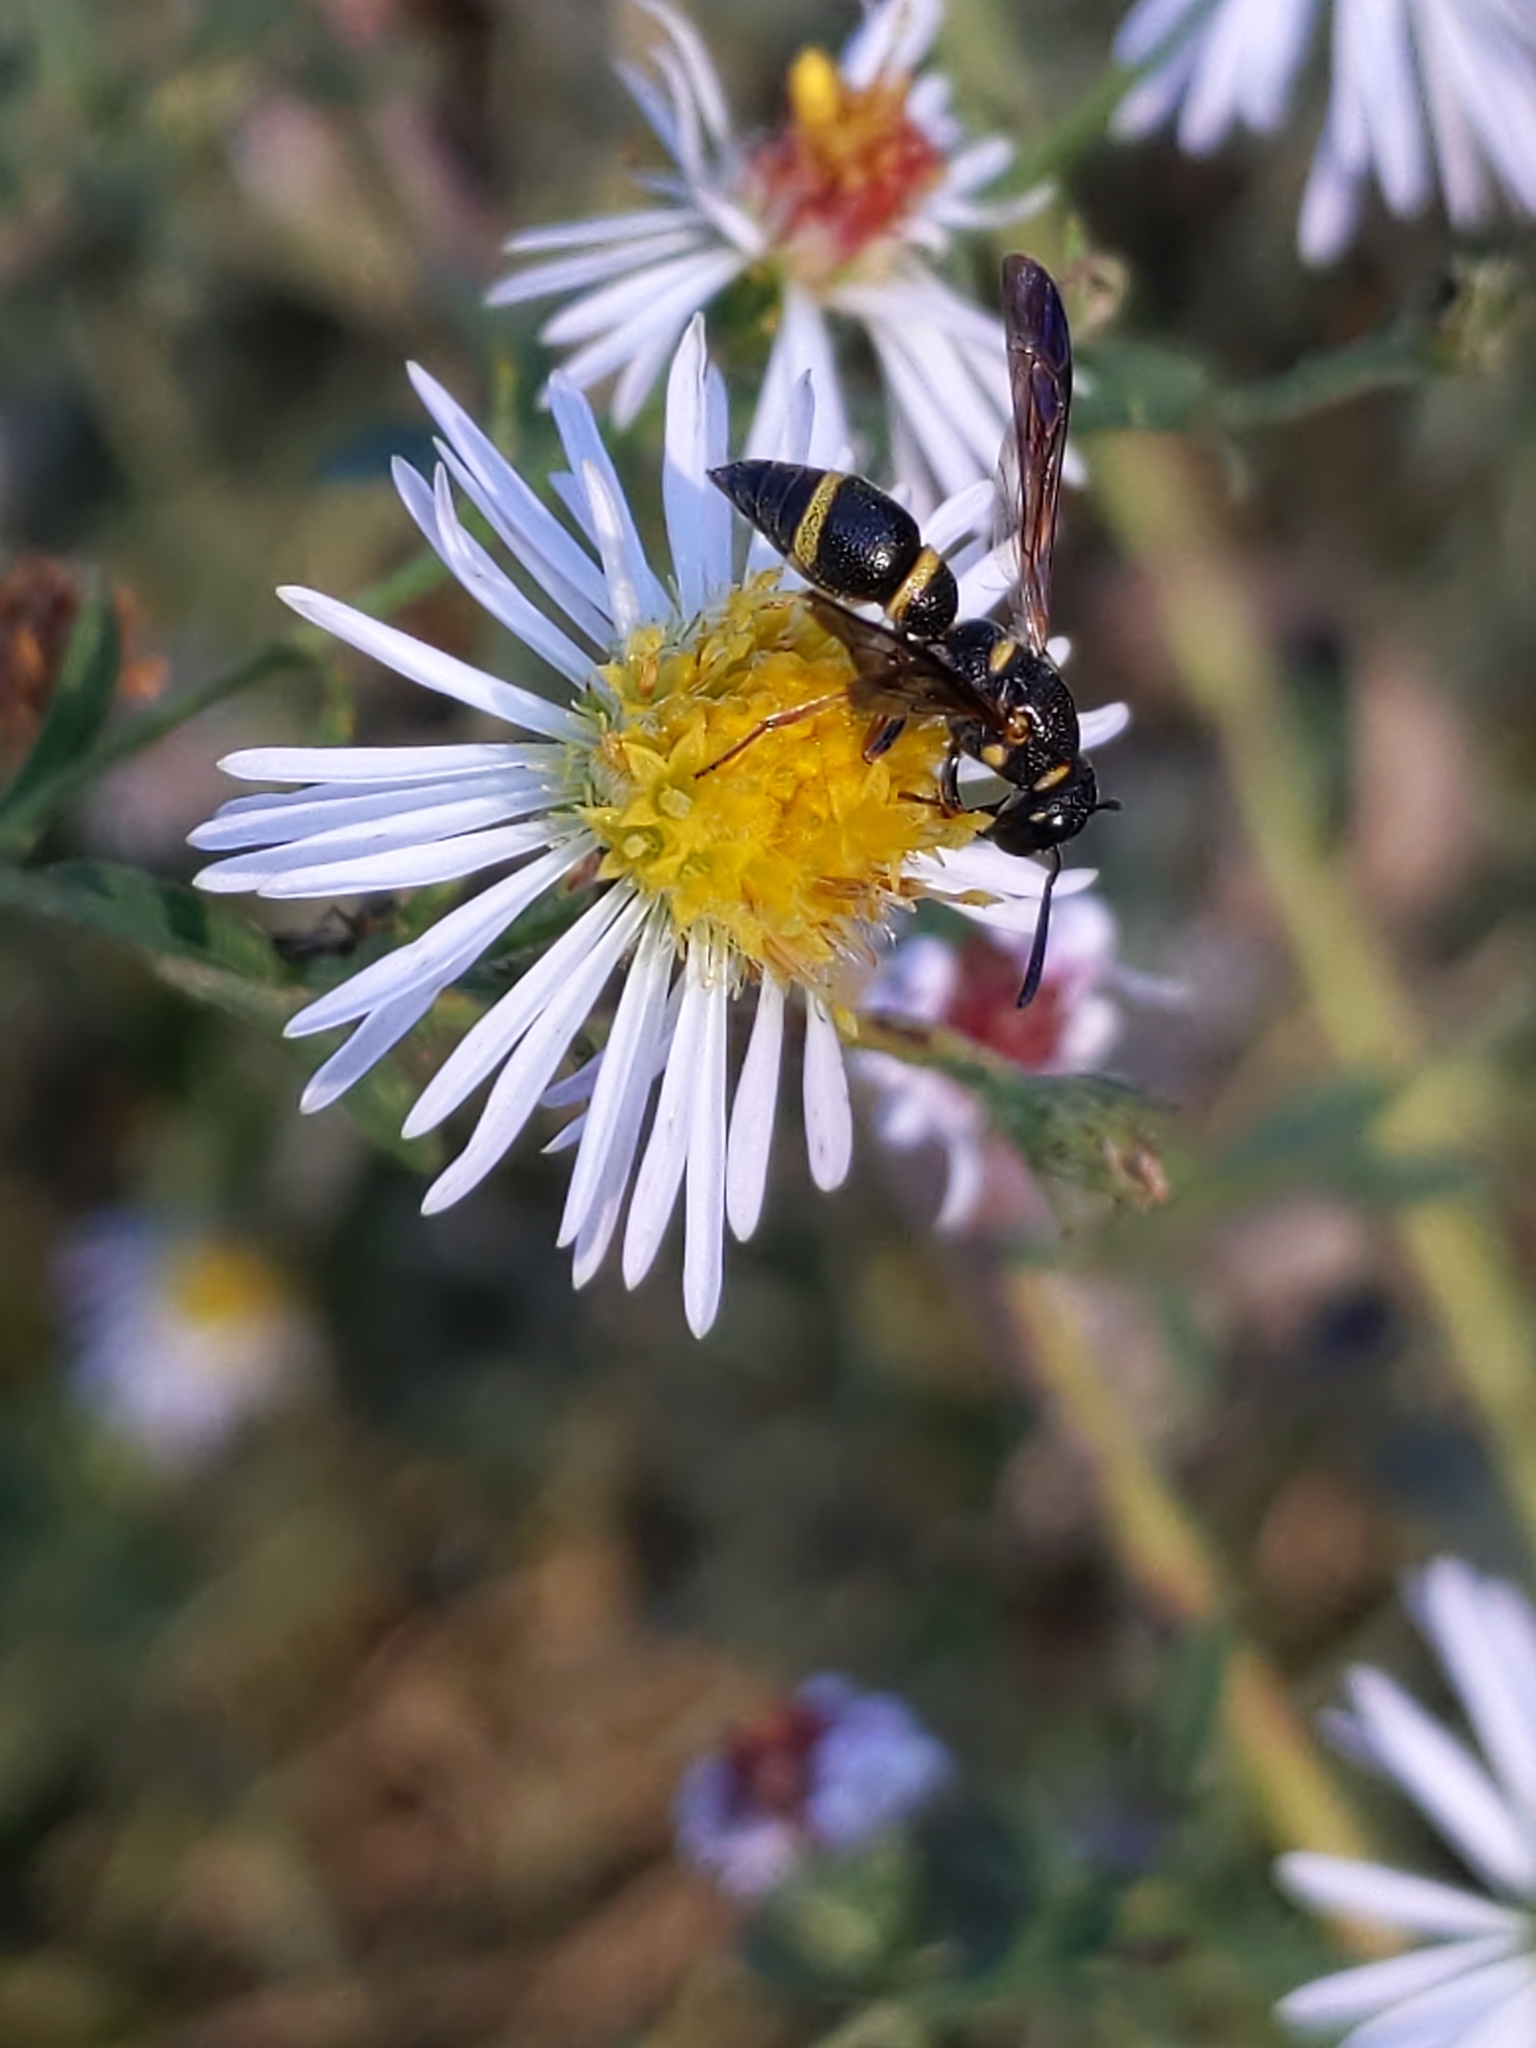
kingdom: Animalia
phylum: Arthropoda
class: Insecta
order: Hymenoptera
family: Eumenidae
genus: Parancistrocerus
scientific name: Parancistrocerus perennis
